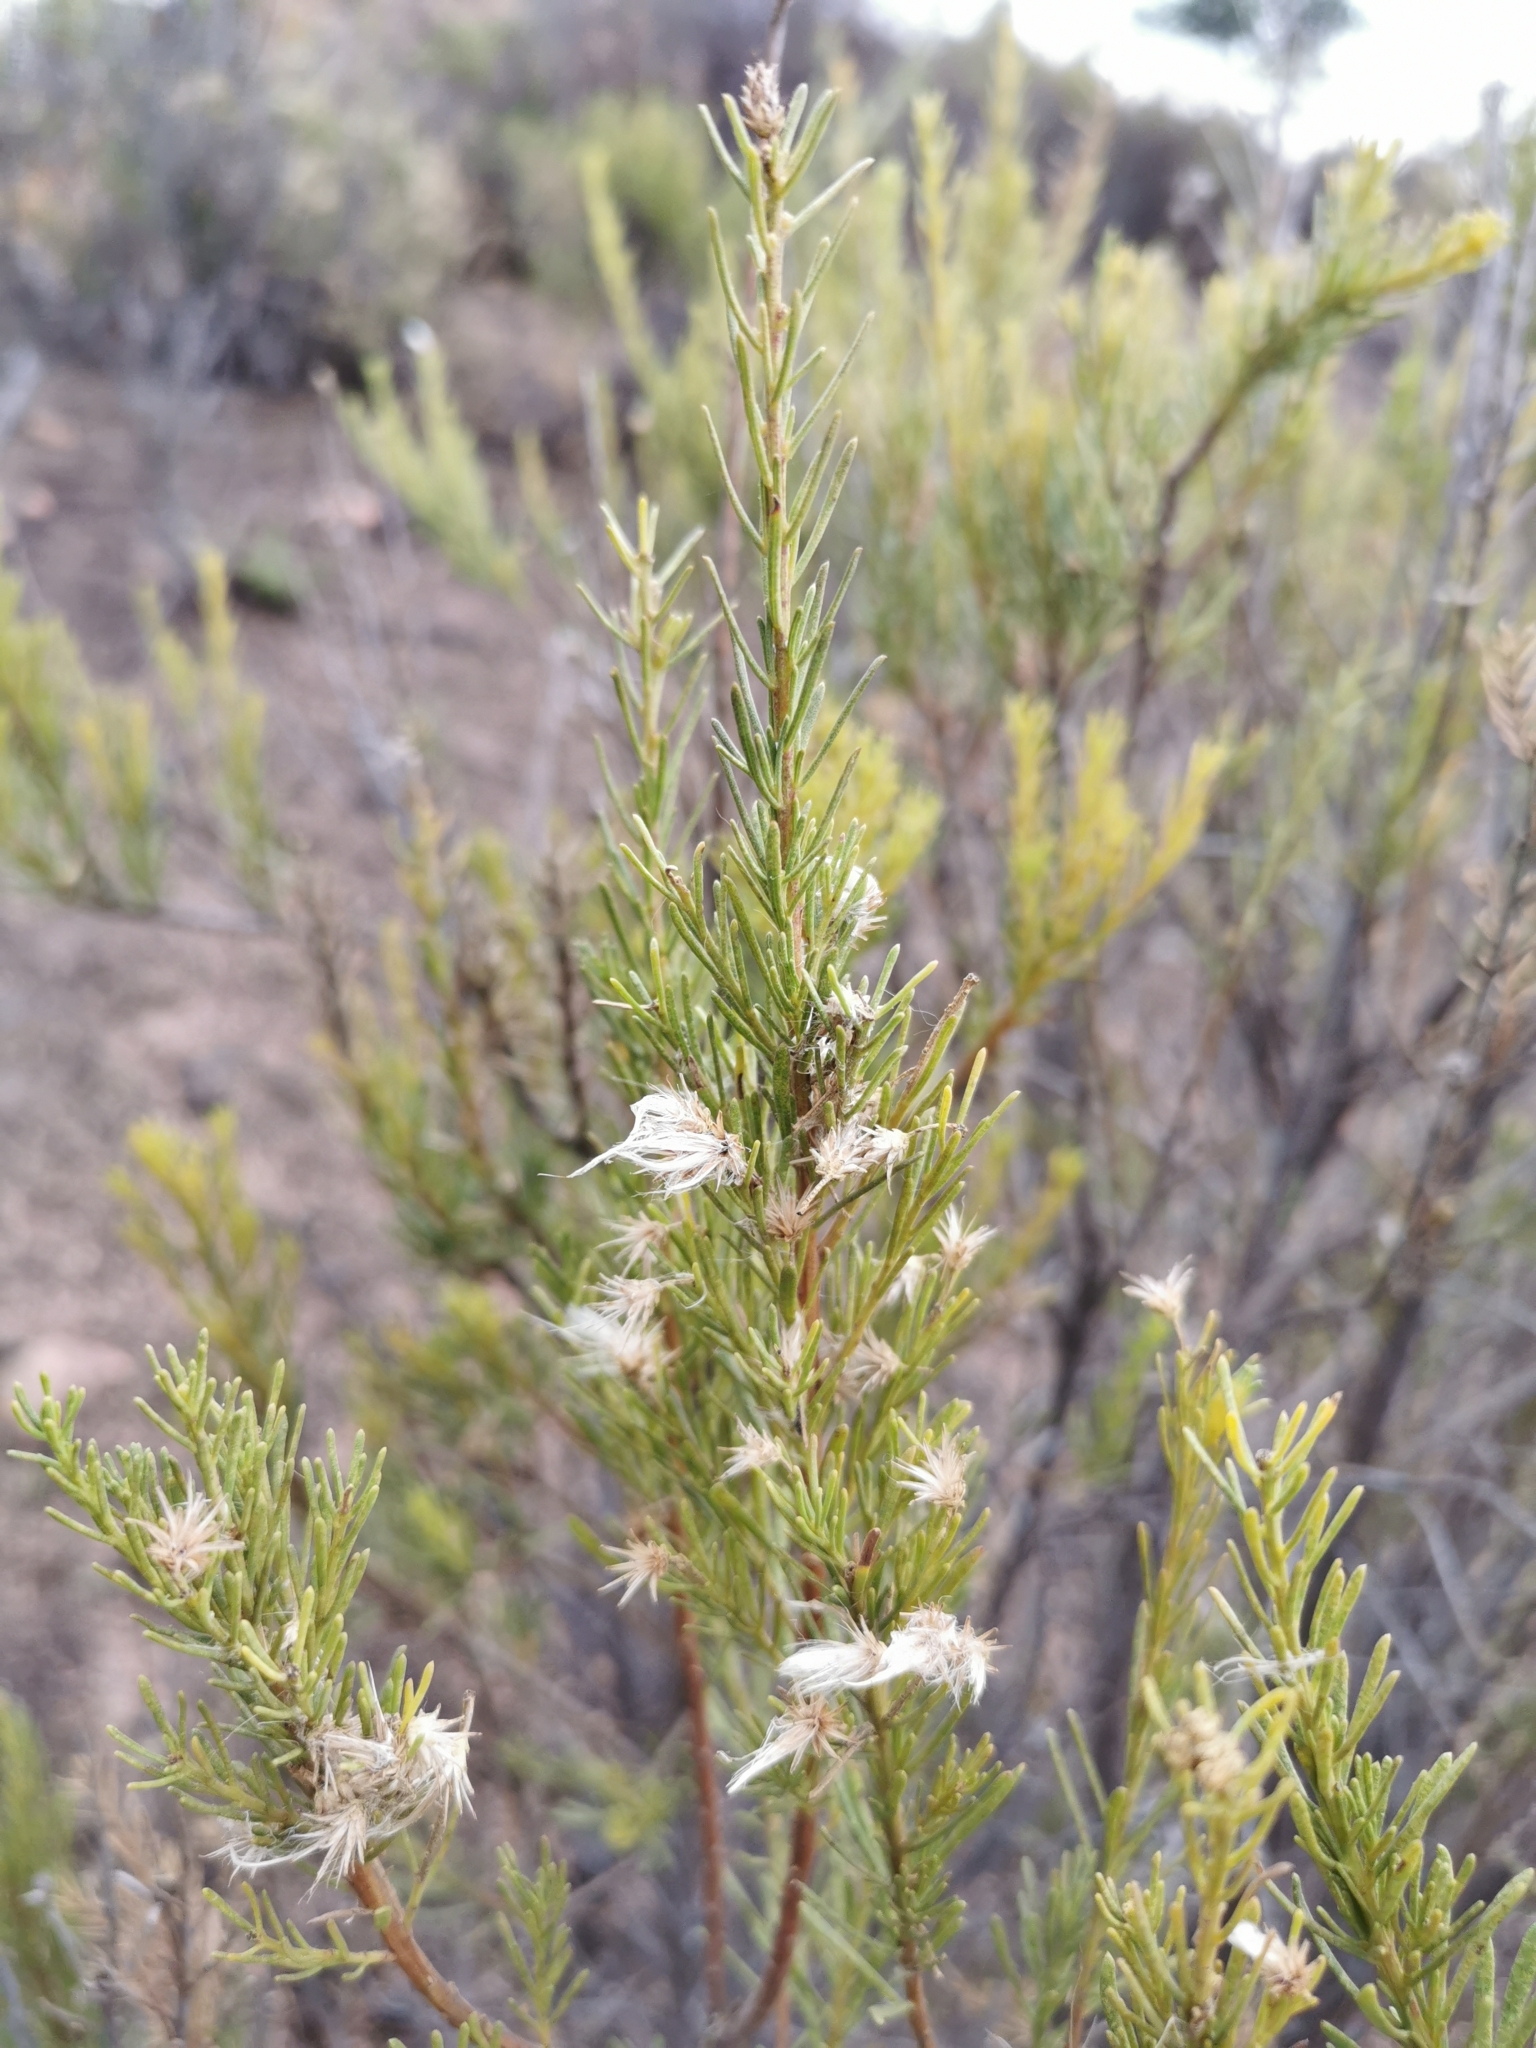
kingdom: Plantae
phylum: Tracheophyta
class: Magnoliopsida
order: Asterales
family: Asteraceae
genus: Baccharis
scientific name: Baccharis linearis
